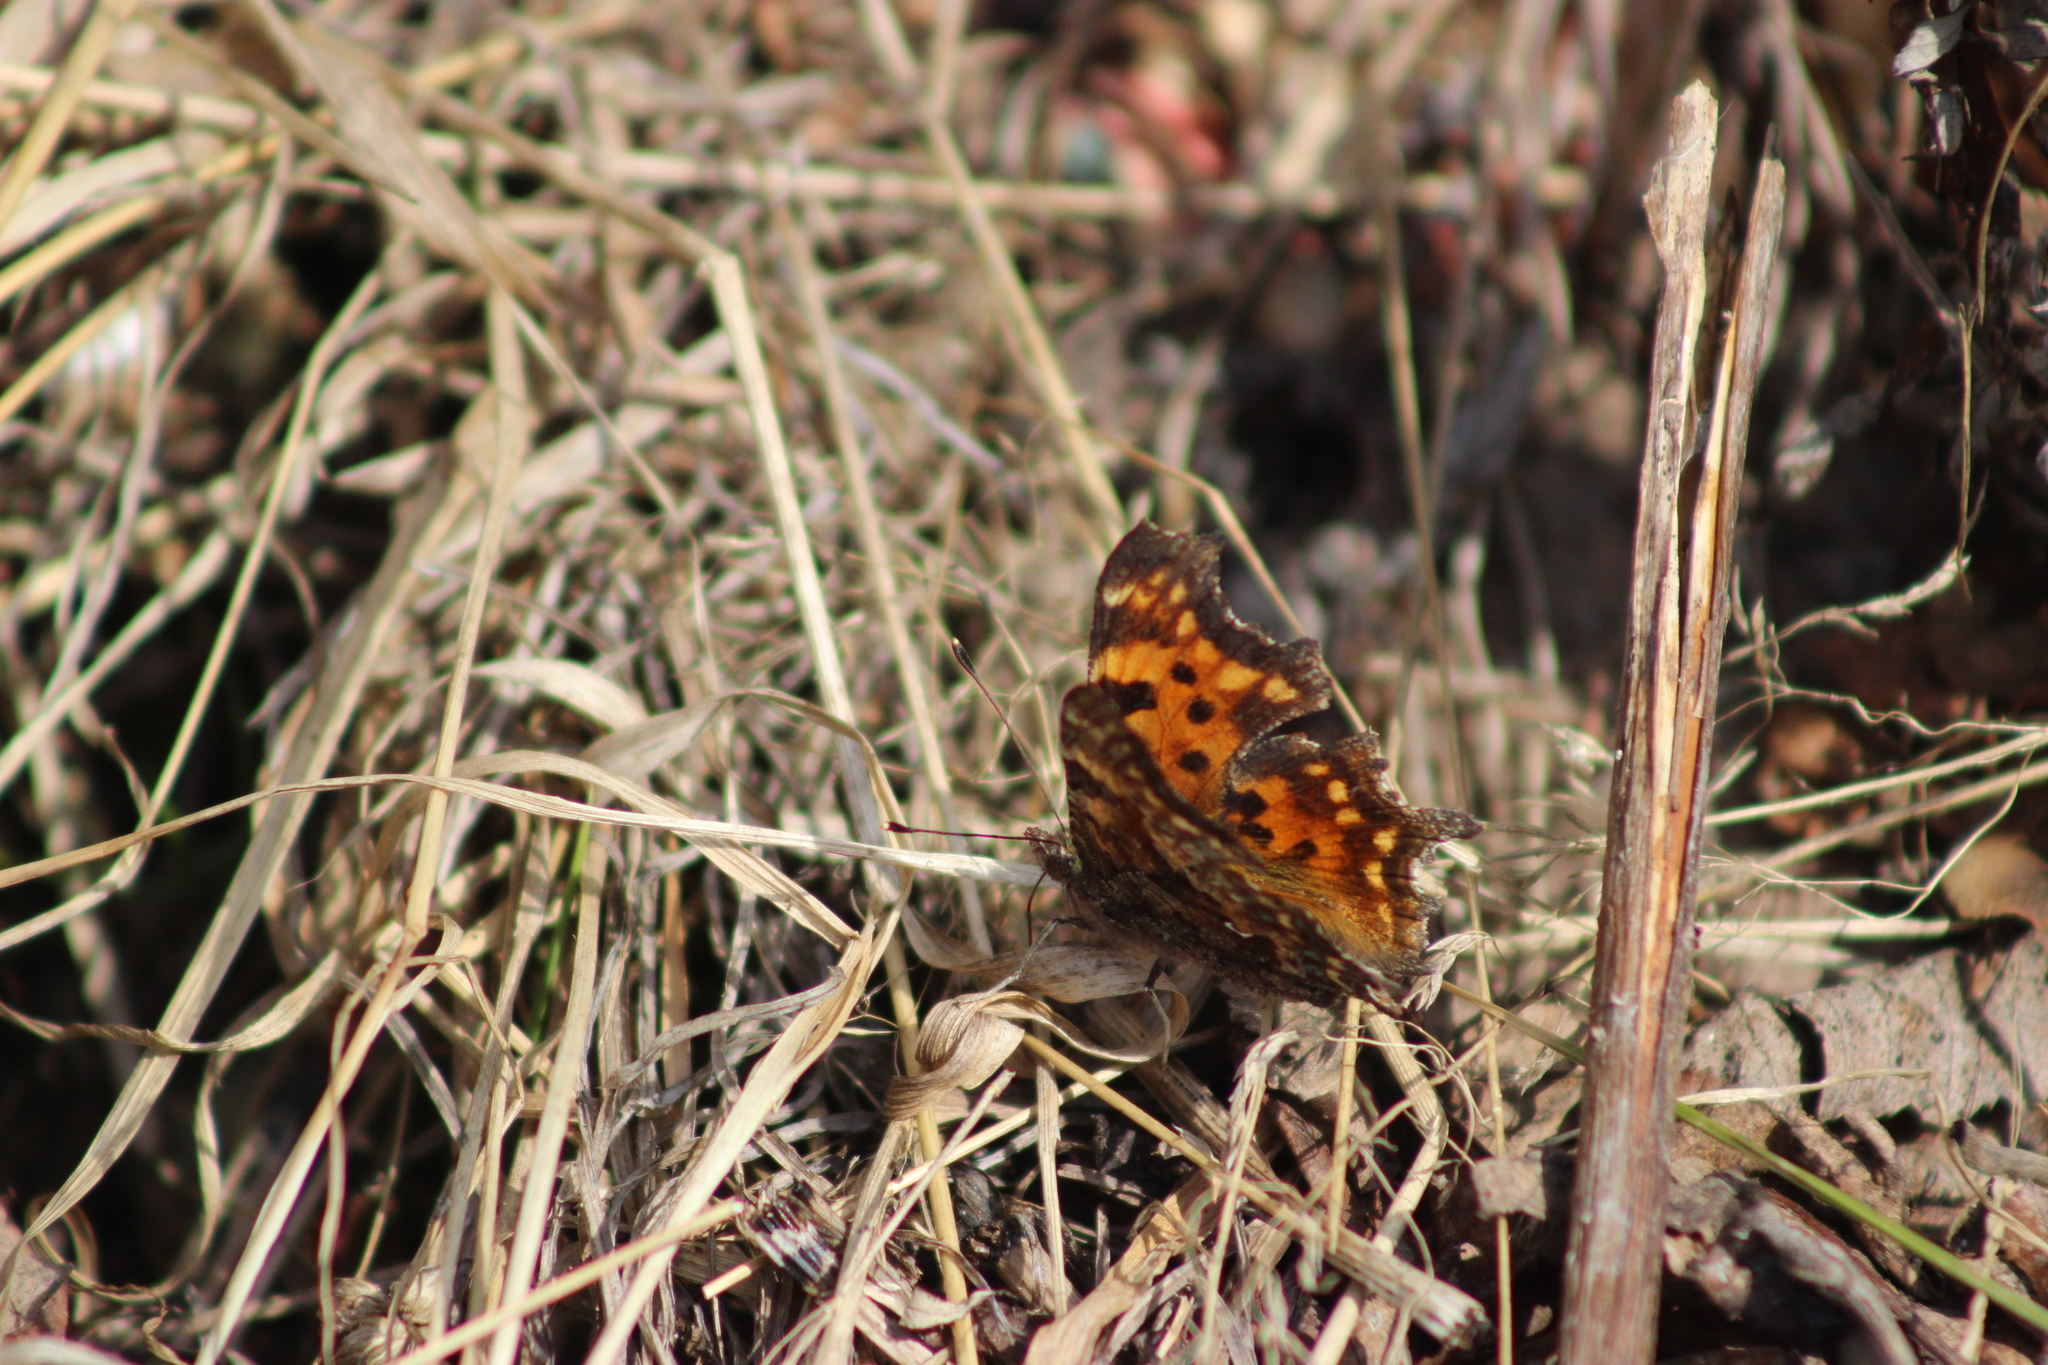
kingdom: Animalia
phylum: Arthropoda
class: Insecta
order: Lepidoptera
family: Nymphalidae
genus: Polygonia
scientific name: Polygonia c-album
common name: Comma
